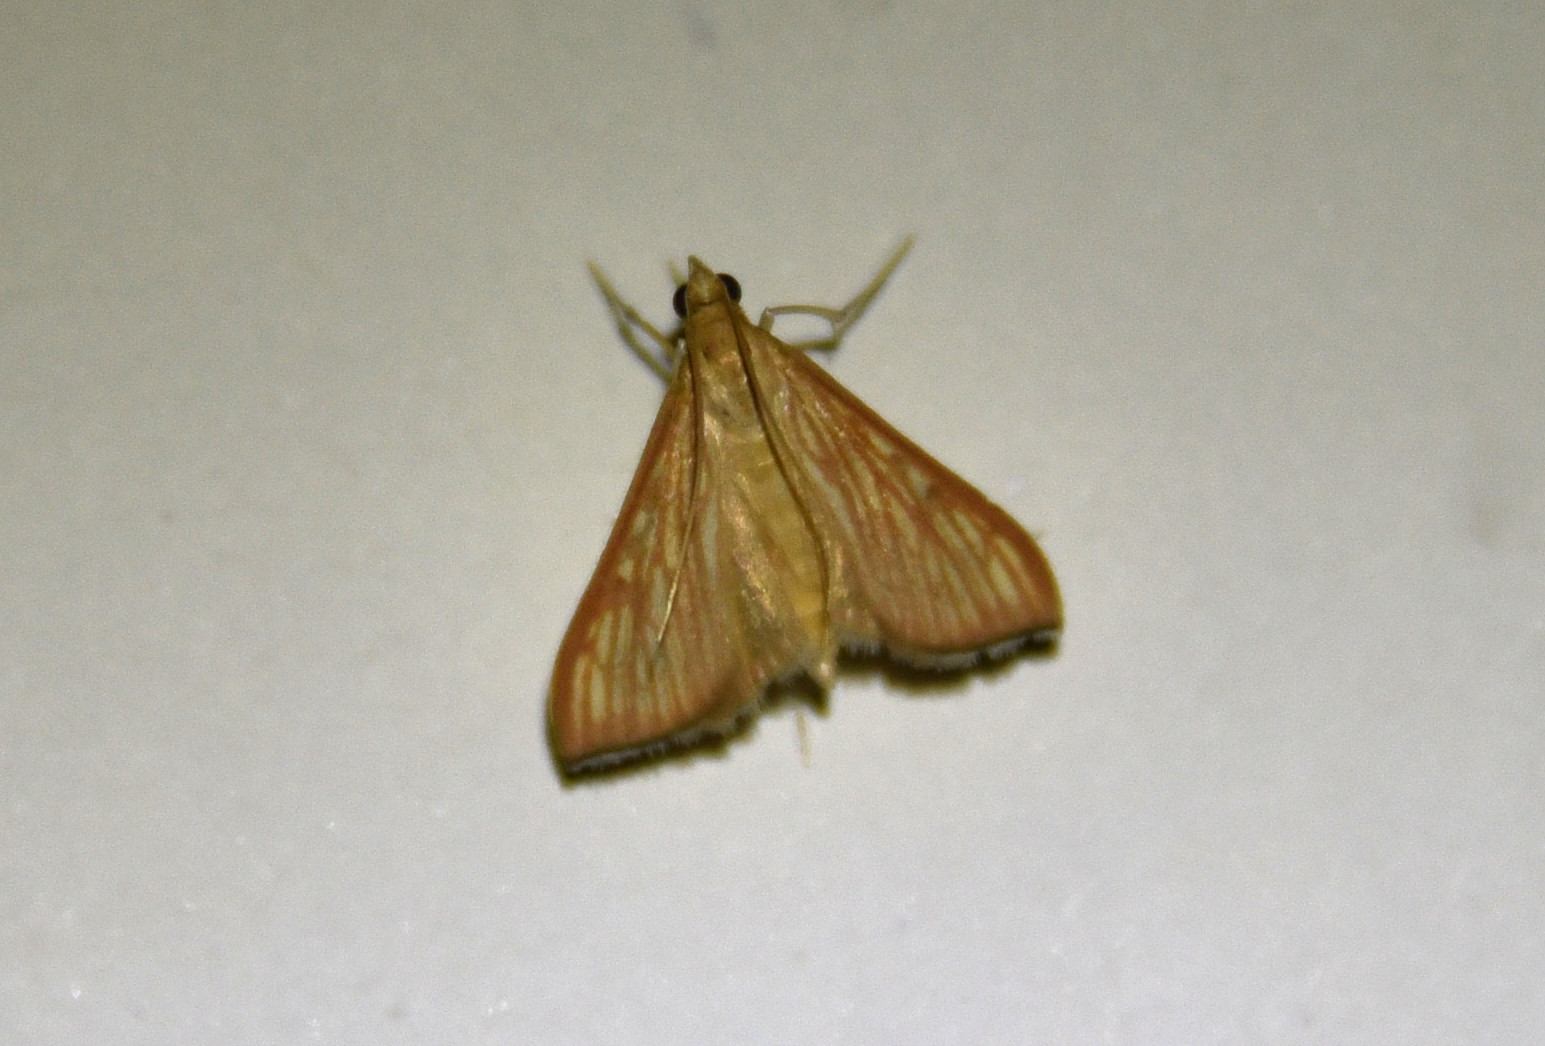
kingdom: Animalia
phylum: Arthropoda
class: Insecta
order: Lepidoptera
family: Crambidae
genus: Antigastra
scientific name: Antigastra catalaunalis
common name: Spanish dot
